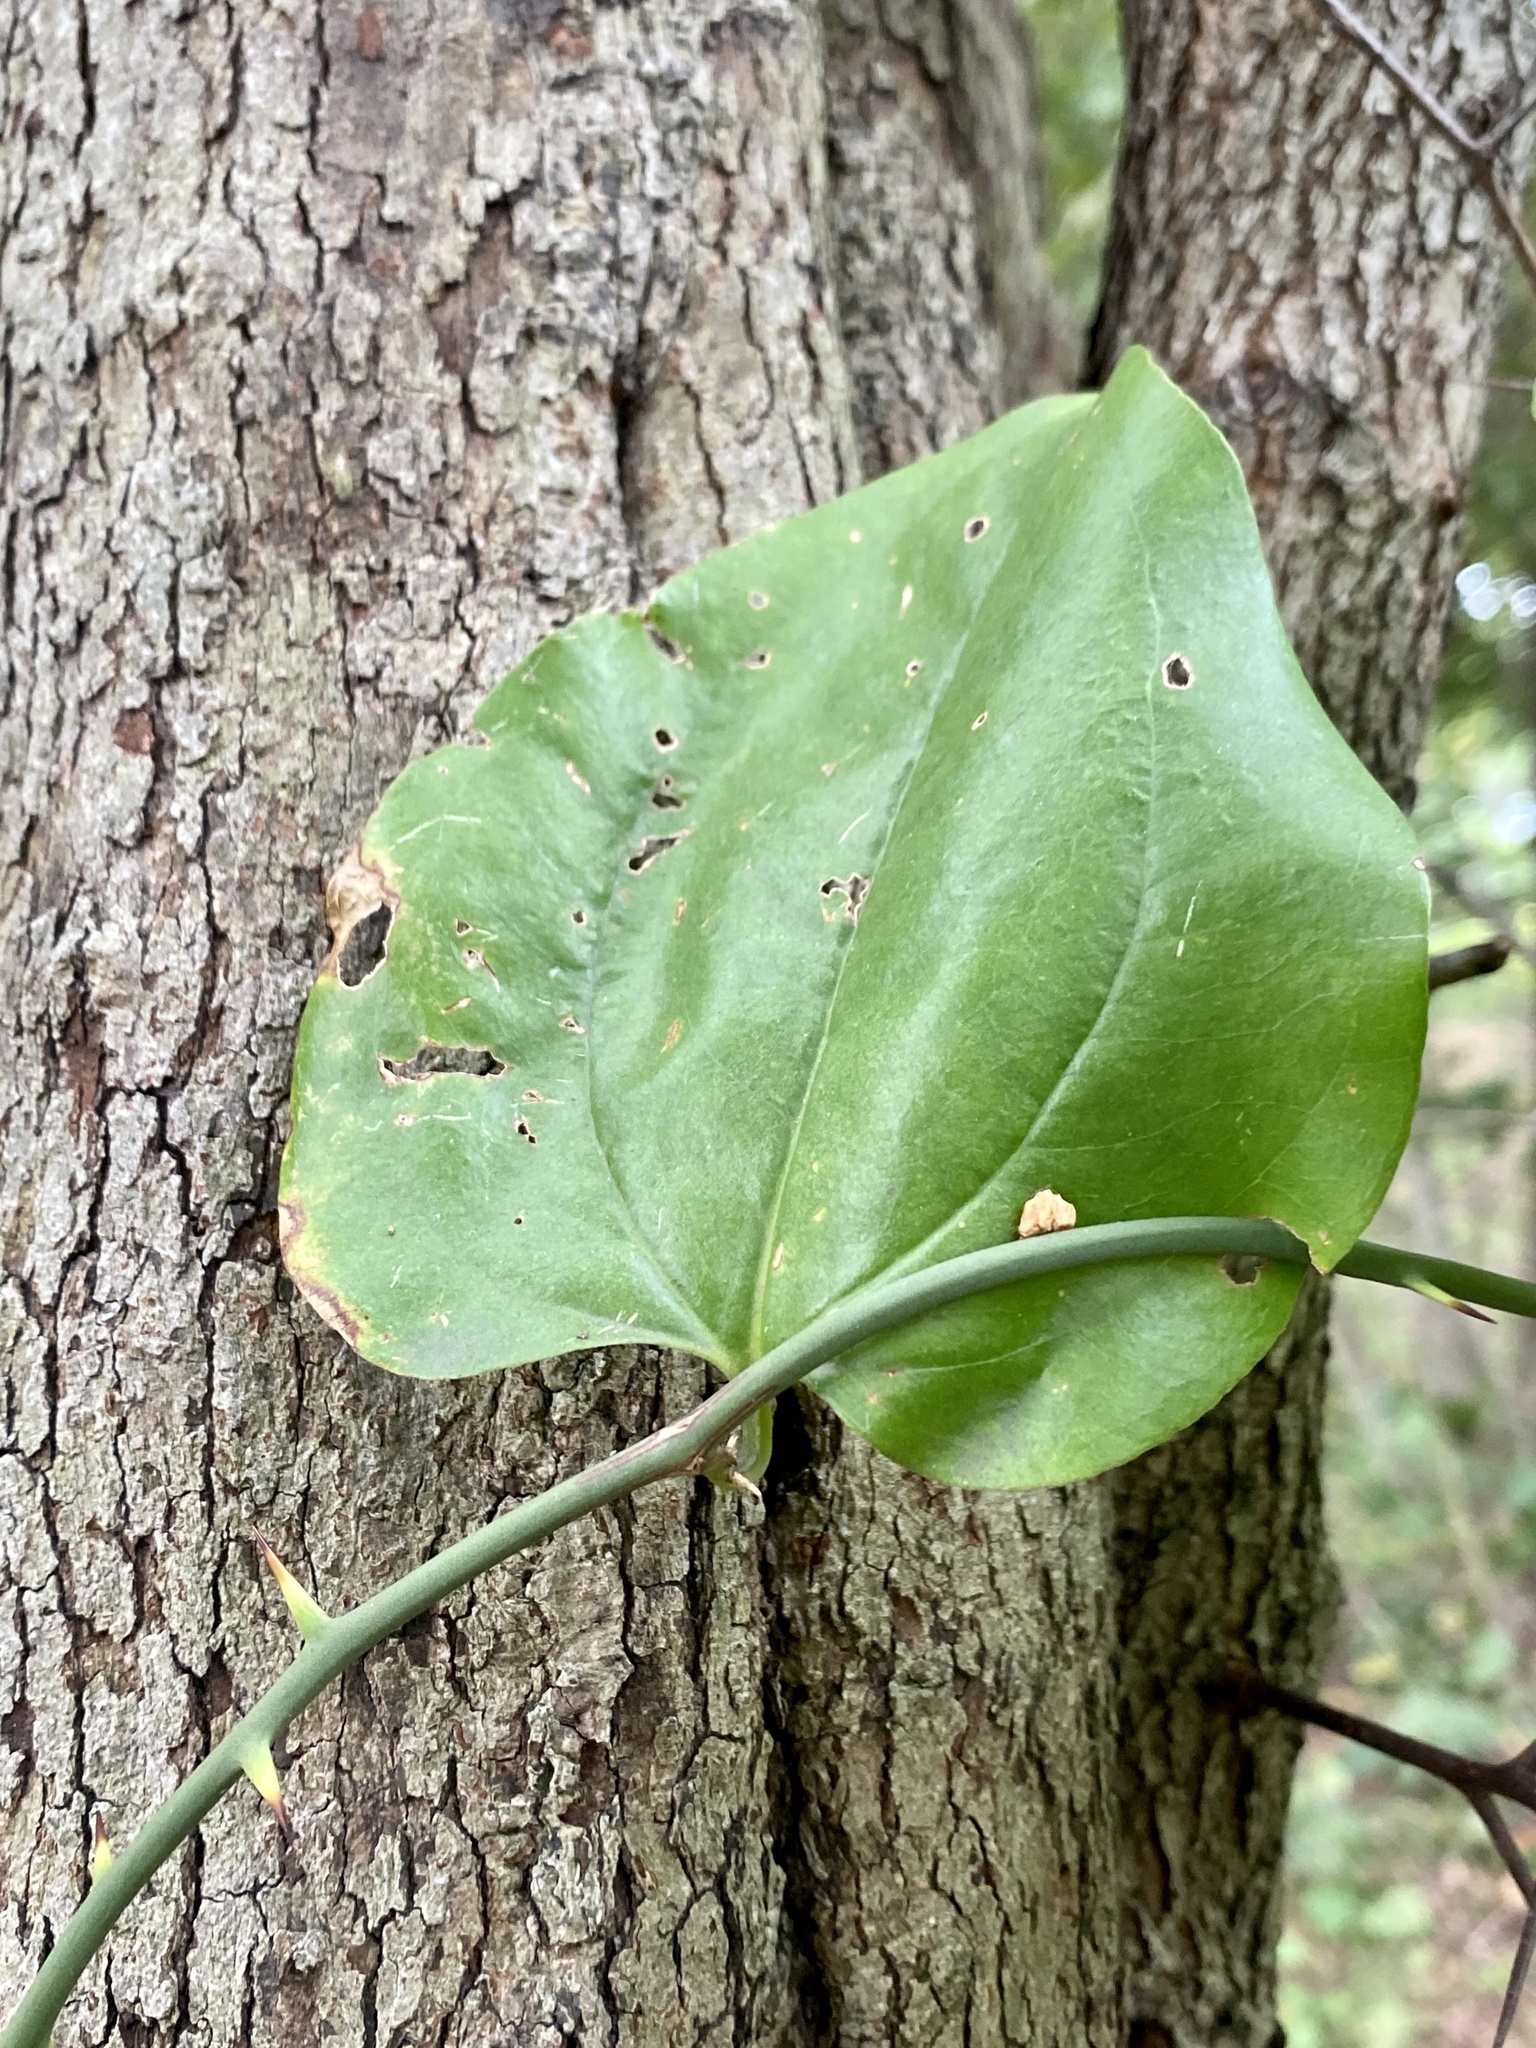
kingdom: Plantae
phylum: Tracheophyta
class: Liliopsida
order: Liliales
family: Smilacaceae
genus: Smilax
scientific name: Smilax rotundifolia
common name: Bullbriar
